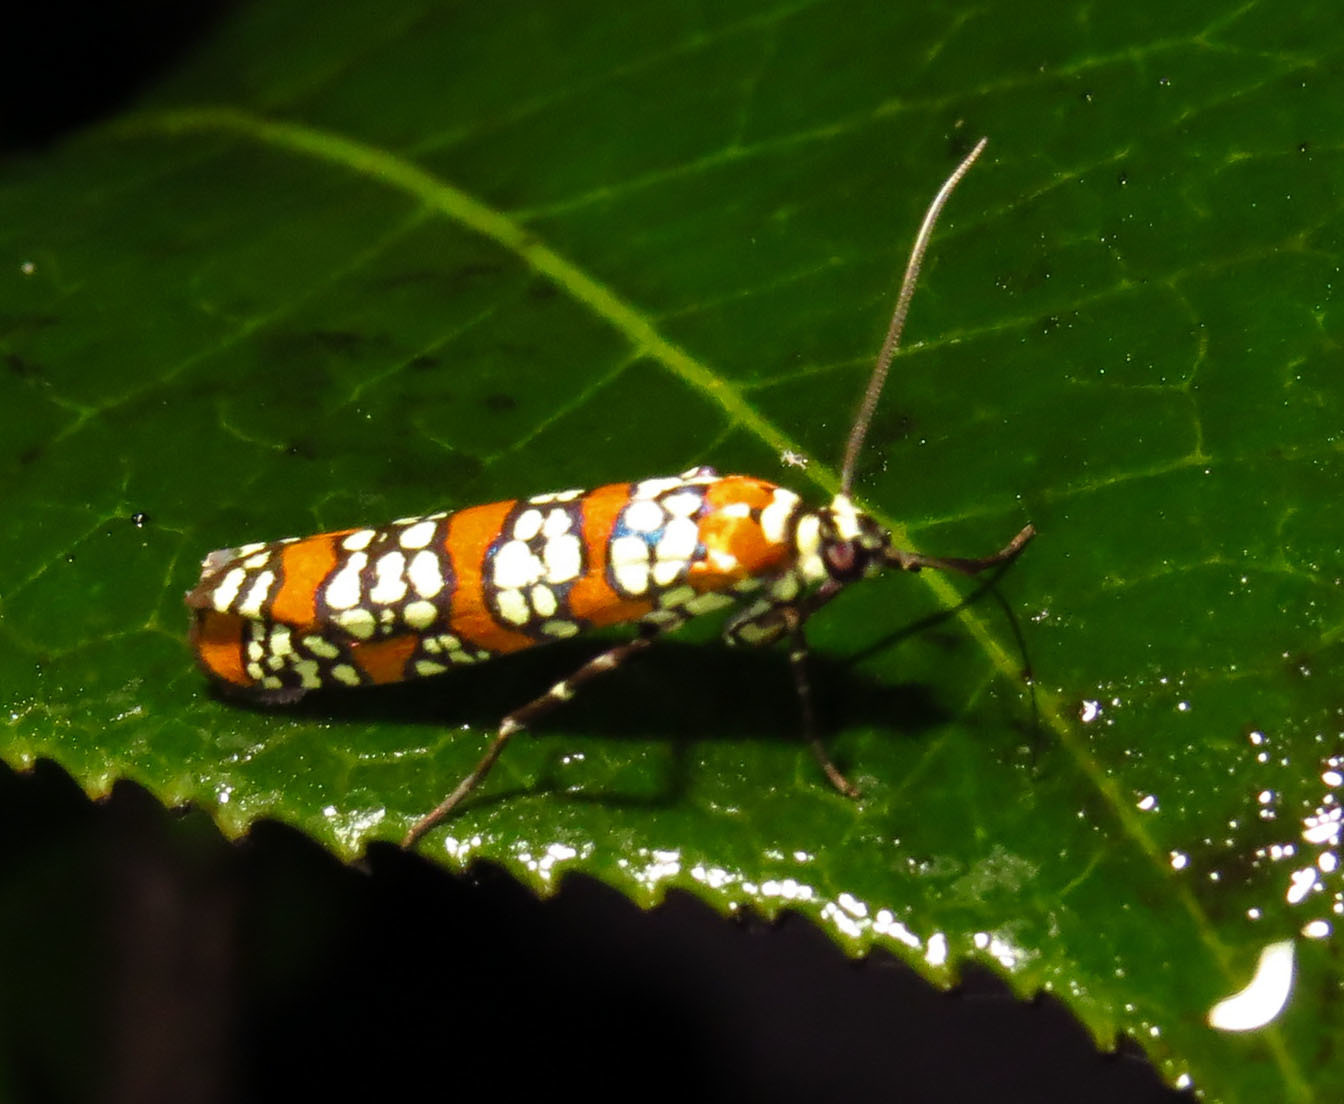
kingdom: Animalia
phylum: Arthropoda
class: Insecta
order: Lepidoptera
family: Attevidae
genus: Atteva
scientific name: Atteva punctella
